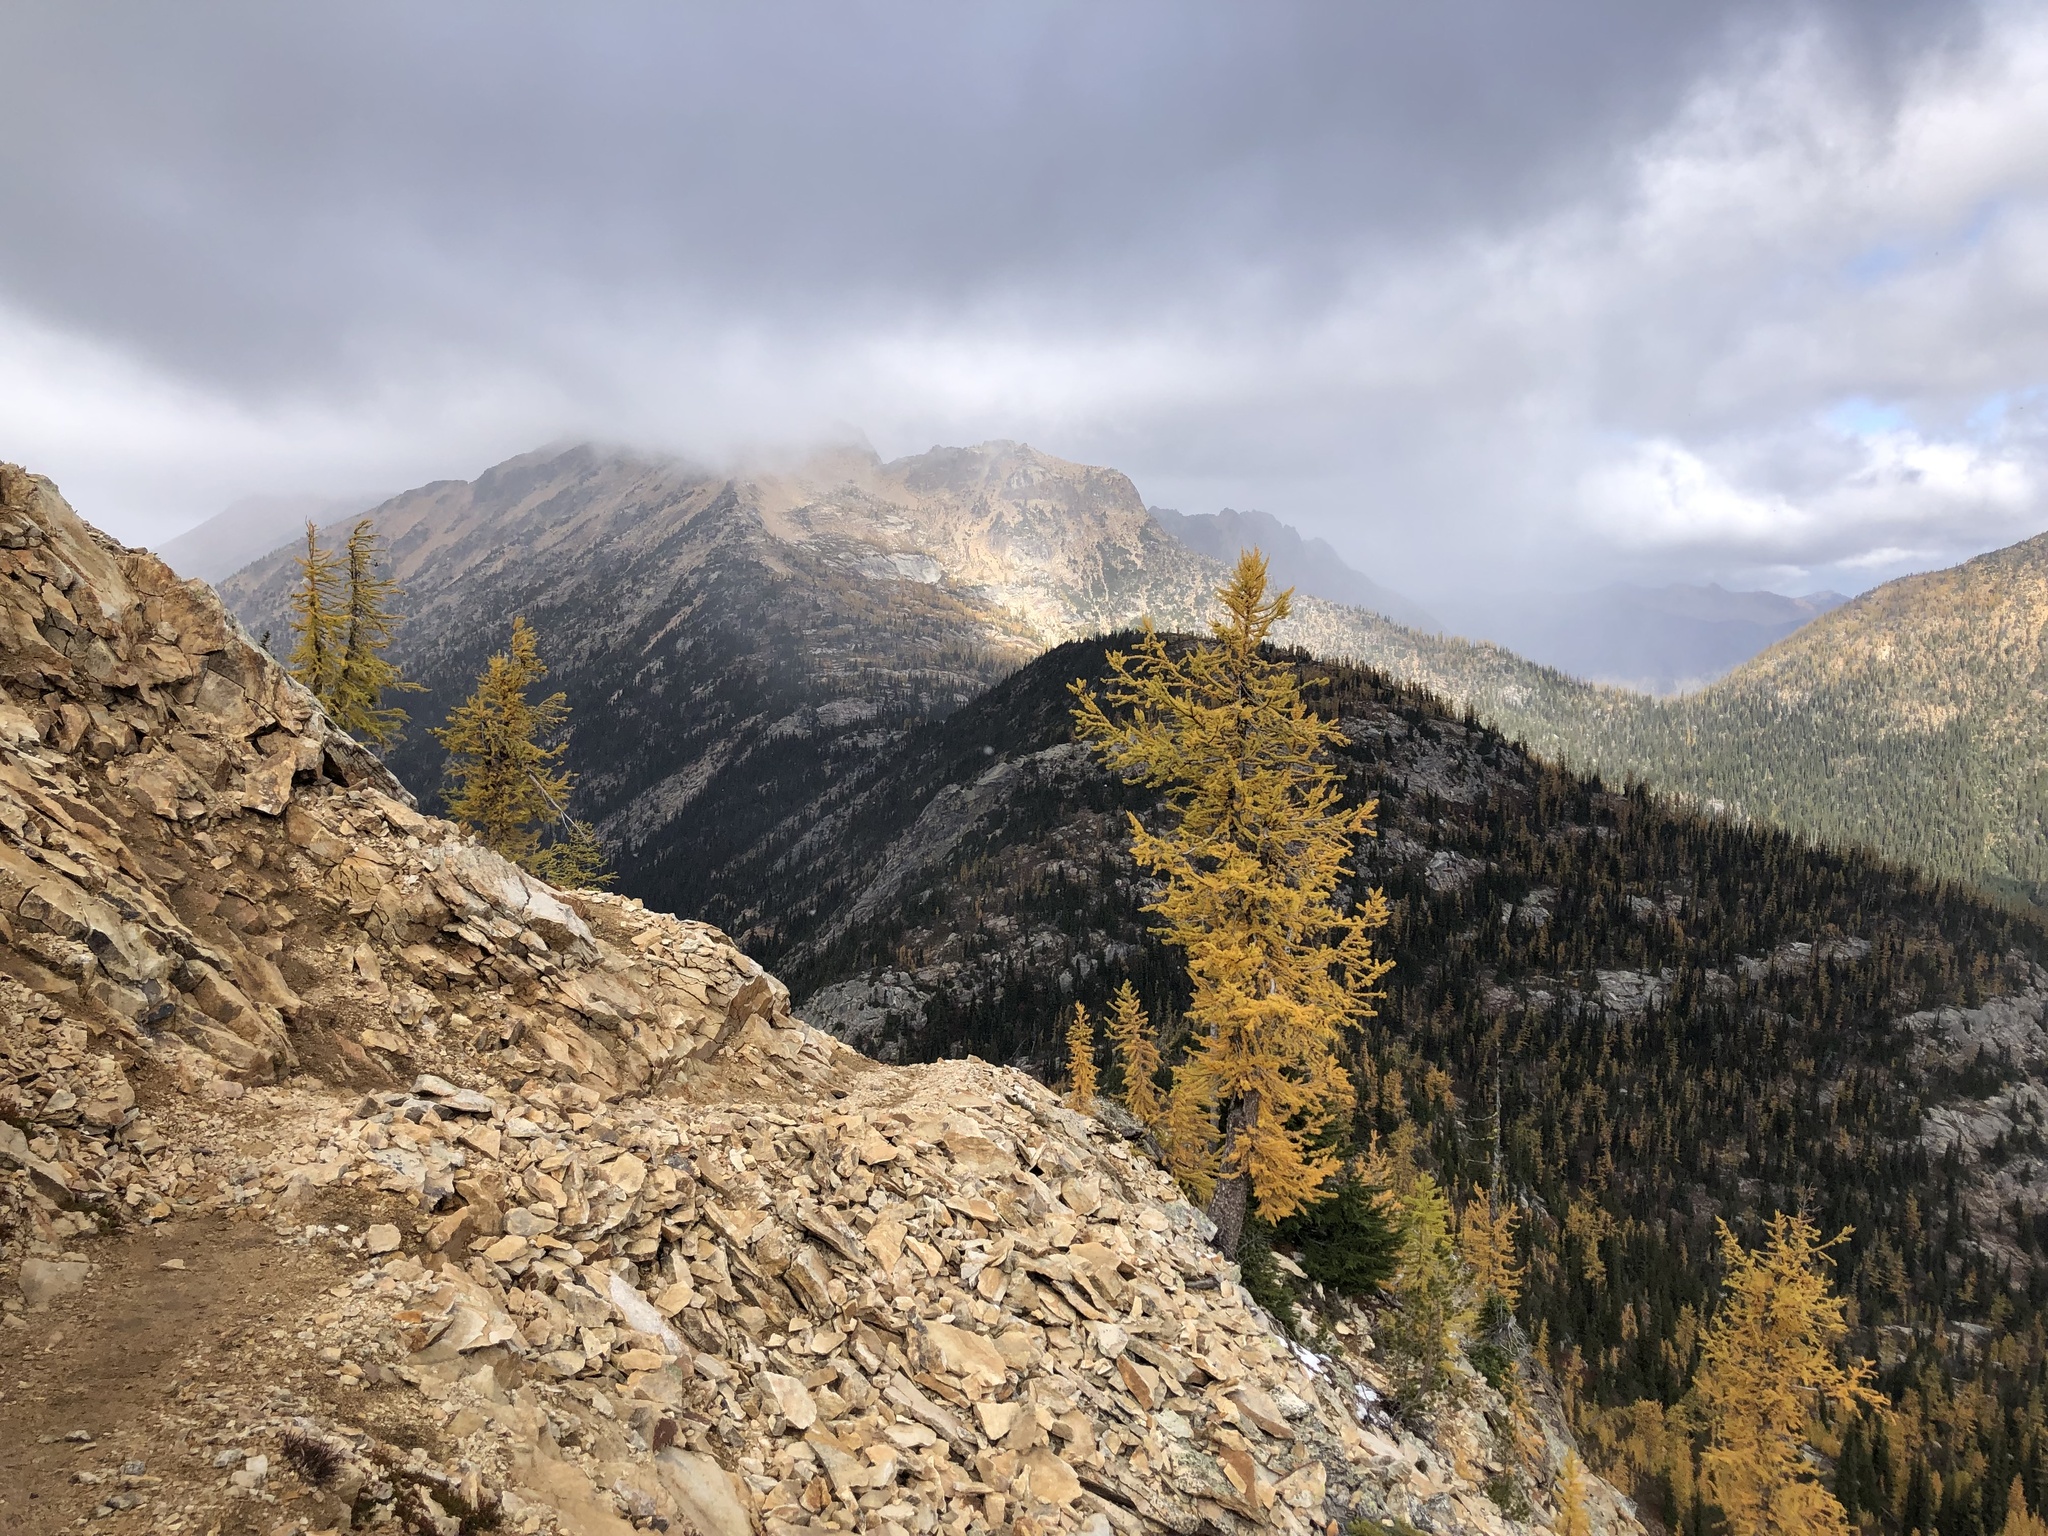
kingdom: Plantae
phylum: Tracheophyta
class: Pinopsida
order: Pinales
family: Pinaceae
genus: Larix
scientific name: Larix lyallii
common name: Alpine larch
